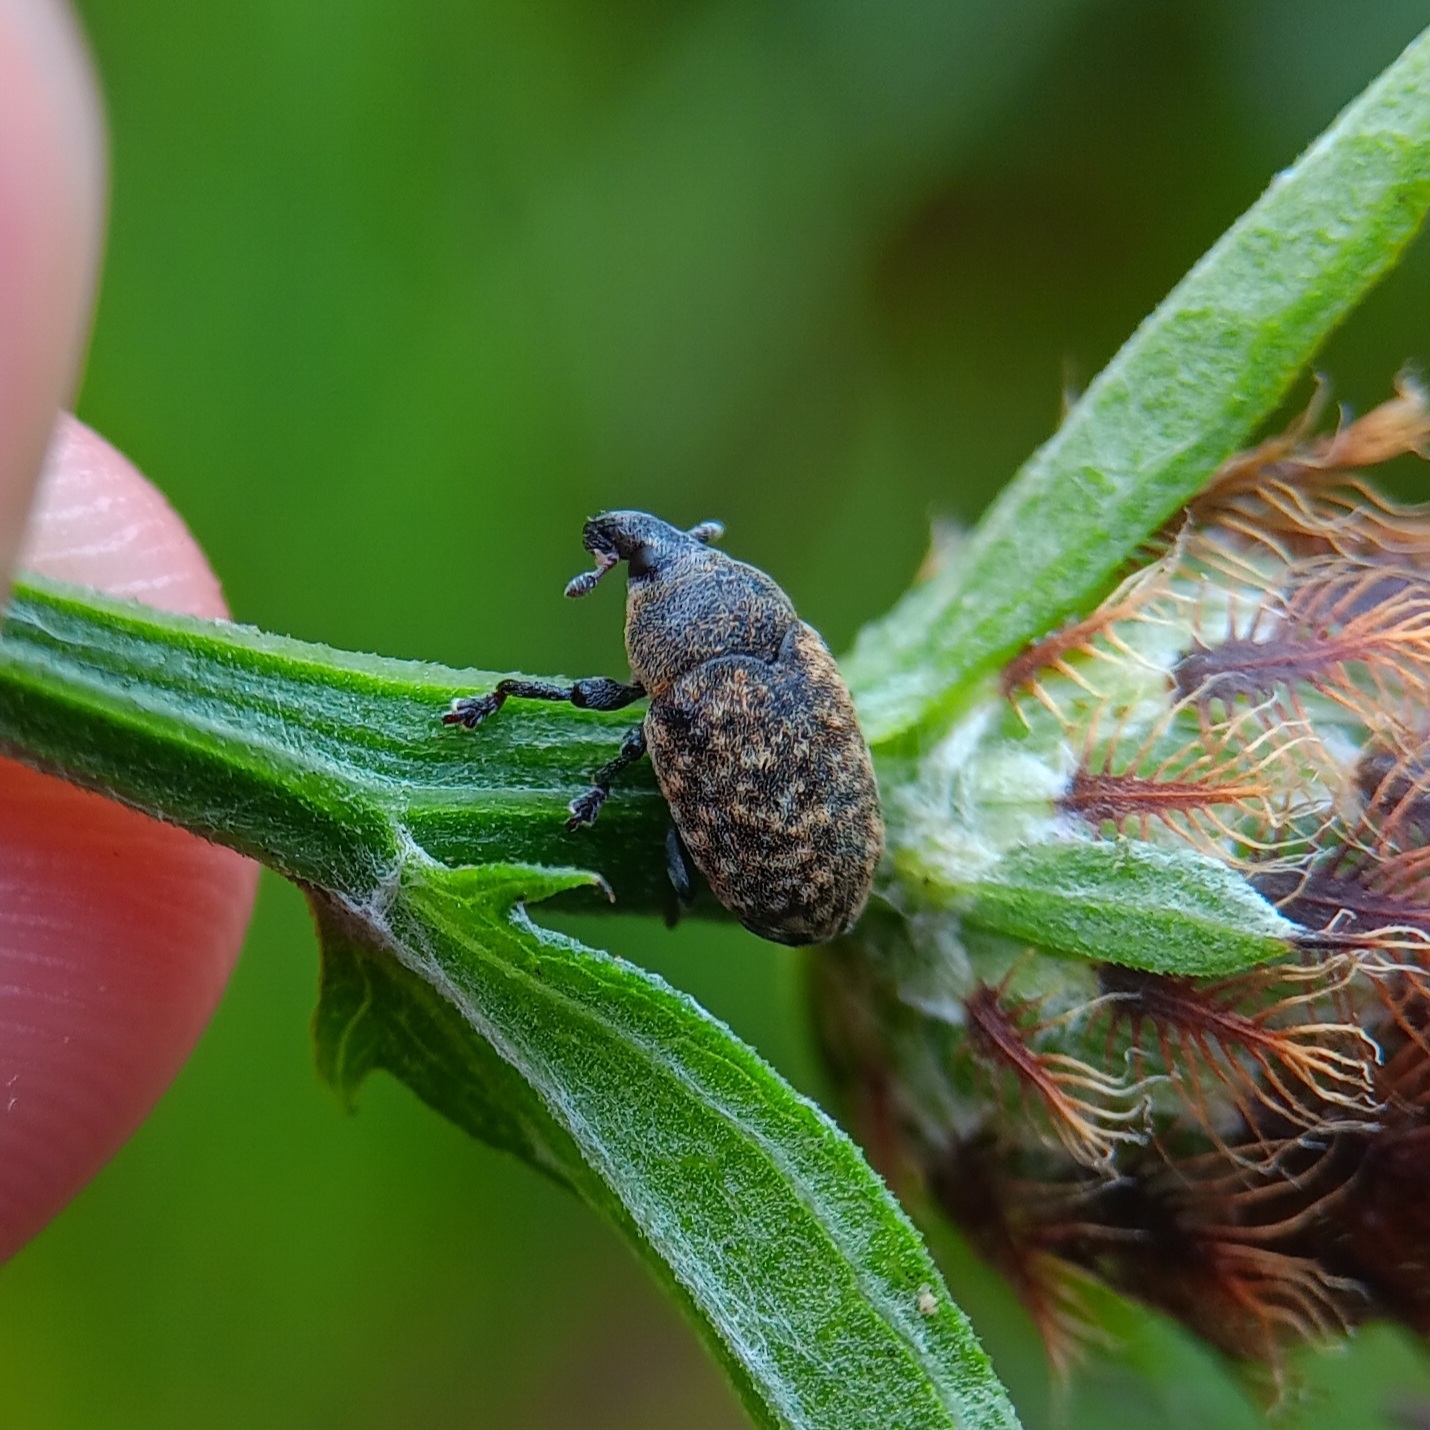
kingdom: Animalia
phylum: Arthropoda
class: Insecta
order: Coleoptera
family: Curculionidae
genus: Larinus
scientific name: Larinus obtusus
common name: Weevil
